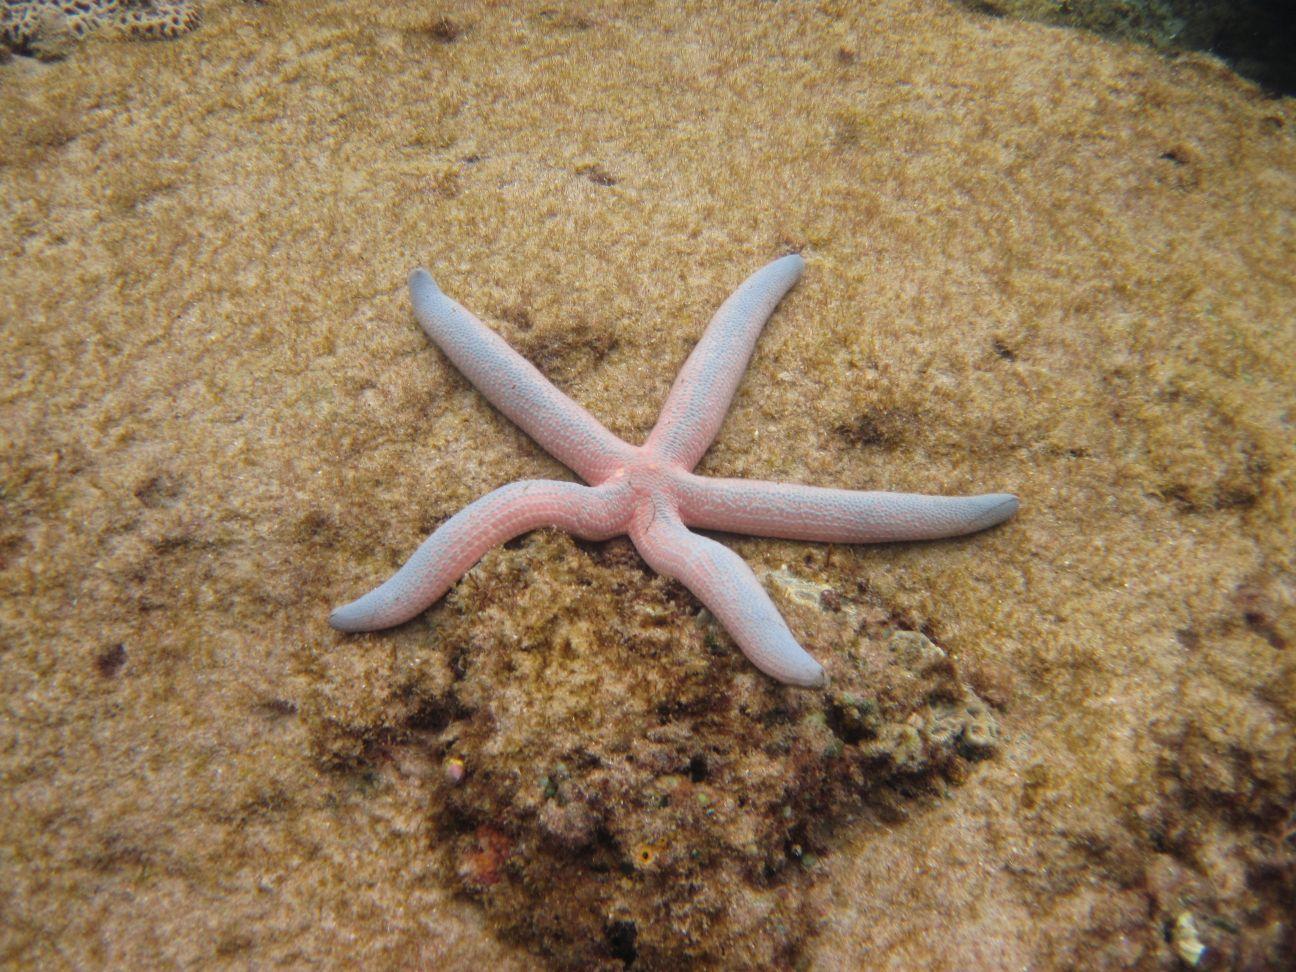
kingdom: Animalia
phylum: Echinodermata
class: Asteroidea
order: Valvatida
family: Ophidiasteridae
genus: Linckia
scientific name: Linckia laevigata
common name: Azure sea star
